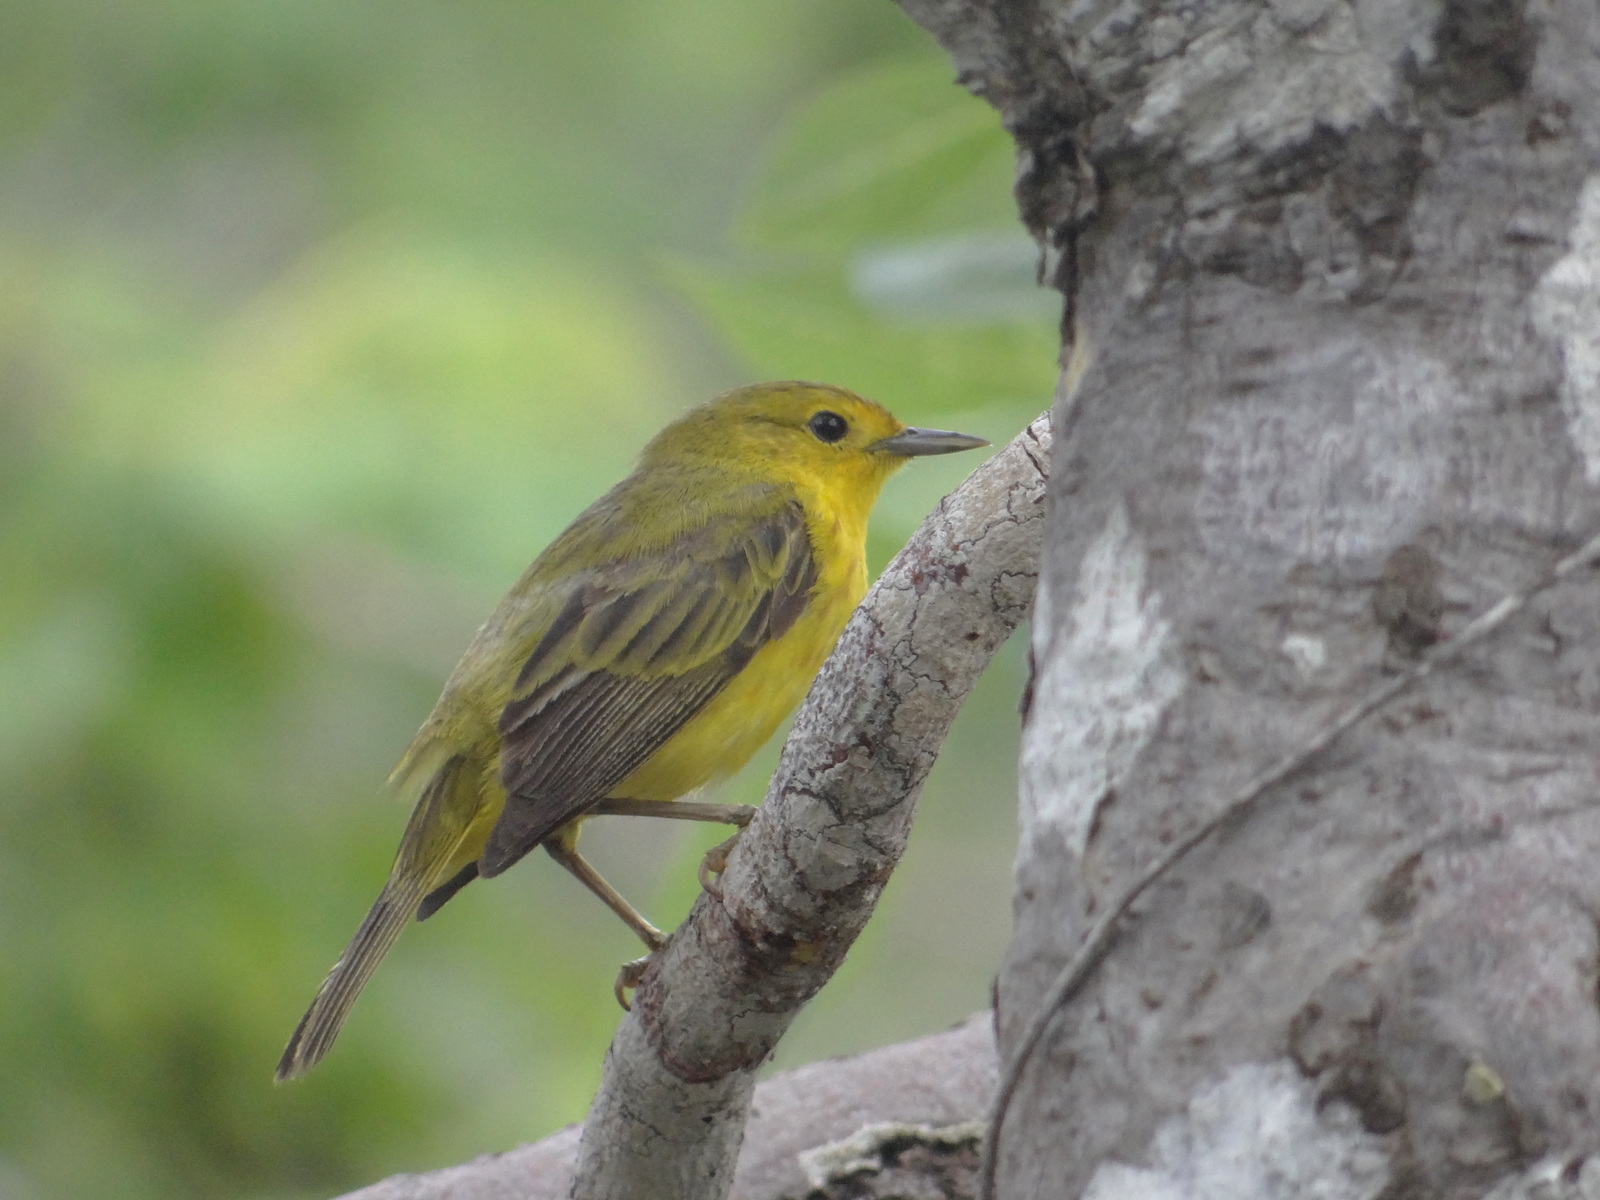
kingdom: Animalia
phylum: Chordata
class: Aves
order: Passeriformes
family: Parulidae
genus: Setophaga
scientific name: Setophaga petechia
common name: Yellow warbler
